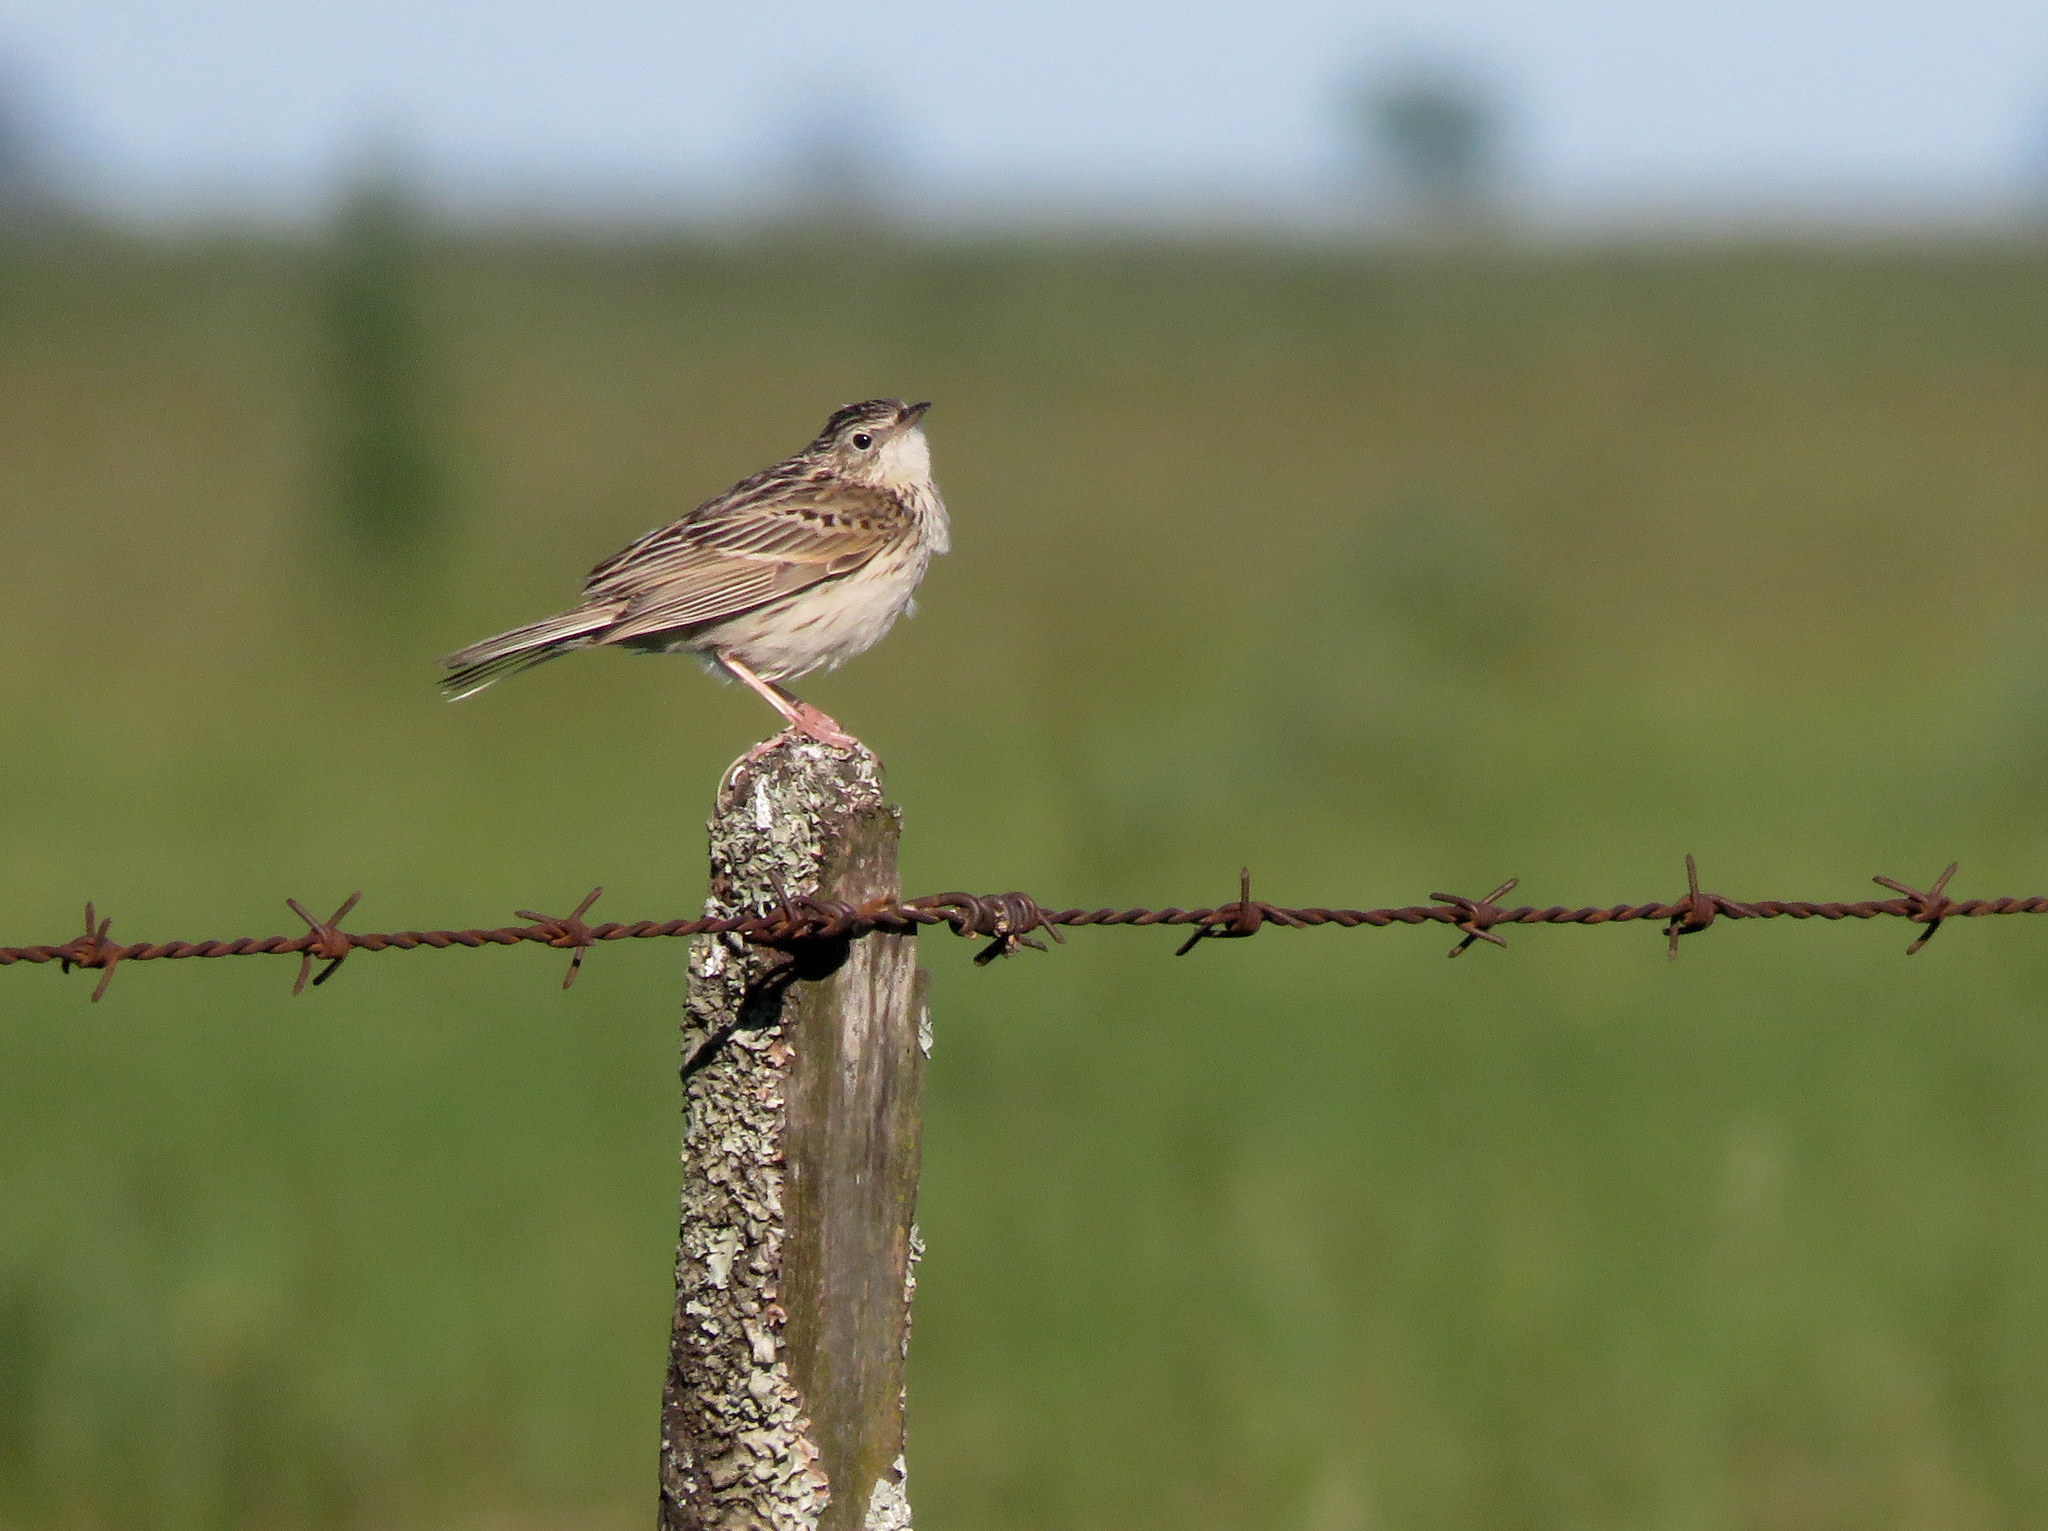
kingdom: Animalia
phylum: Chordata
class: Aves
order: Passeriformes
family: Motacillidae
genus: Anthus
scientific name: Anthus hellmayri
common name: Hellmayr's pipit
